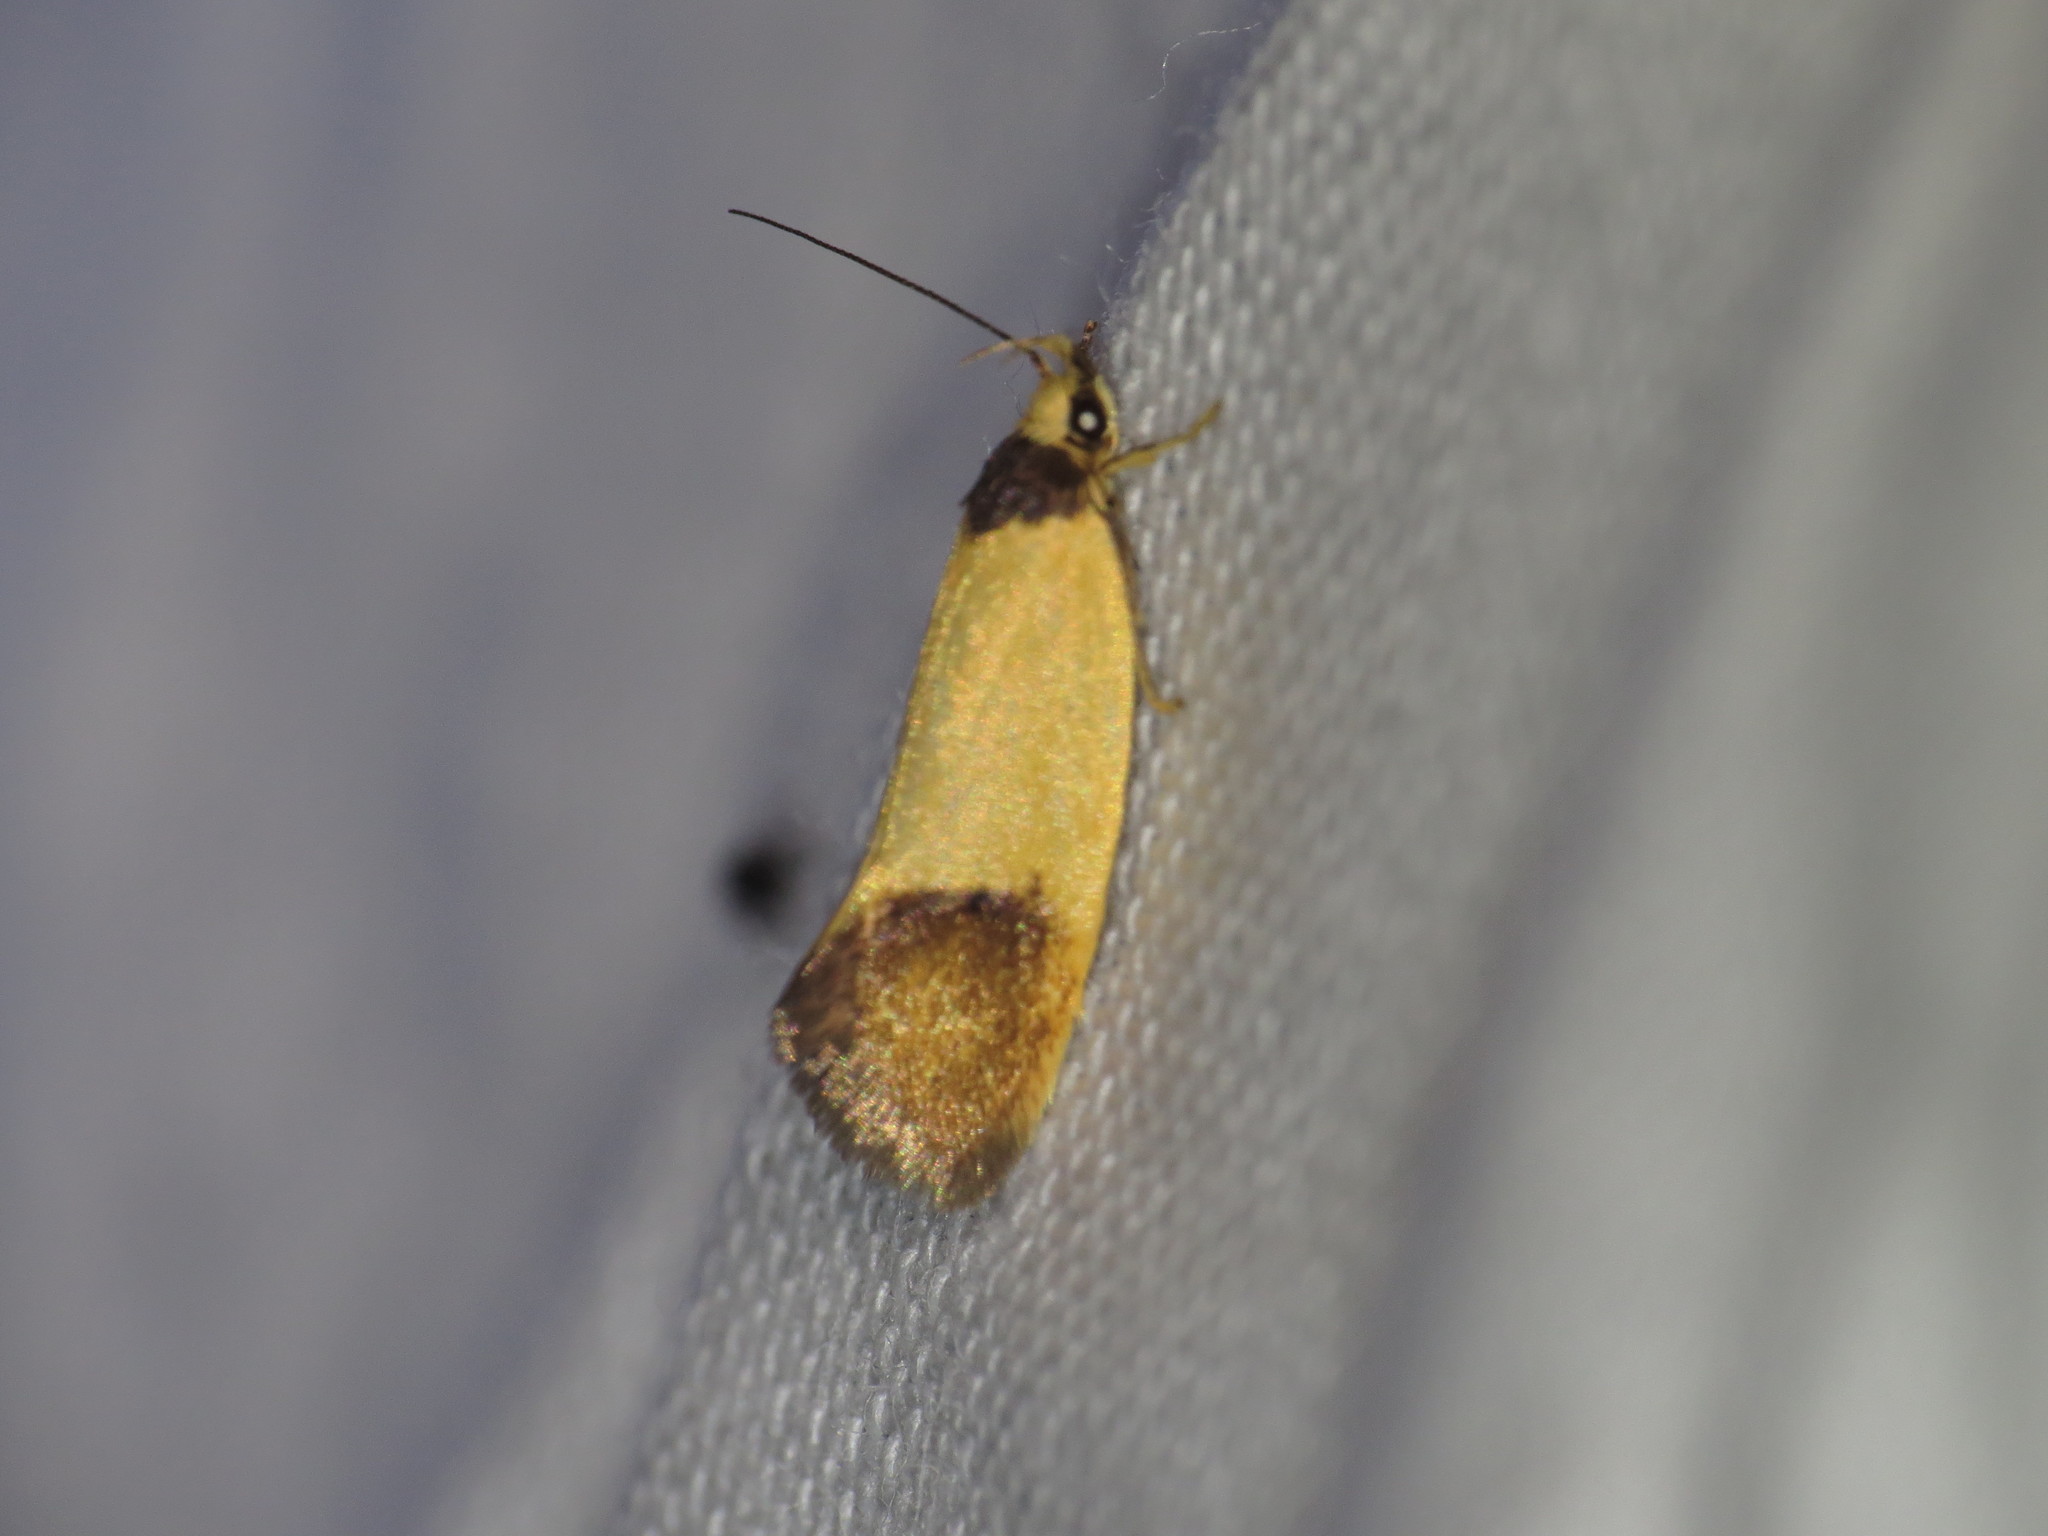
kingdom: Animalia
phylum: Arthropoda
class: Insecta
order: Lepidoptera
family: Oecophoridae
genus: Merocroca
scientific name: Merocroca automima
